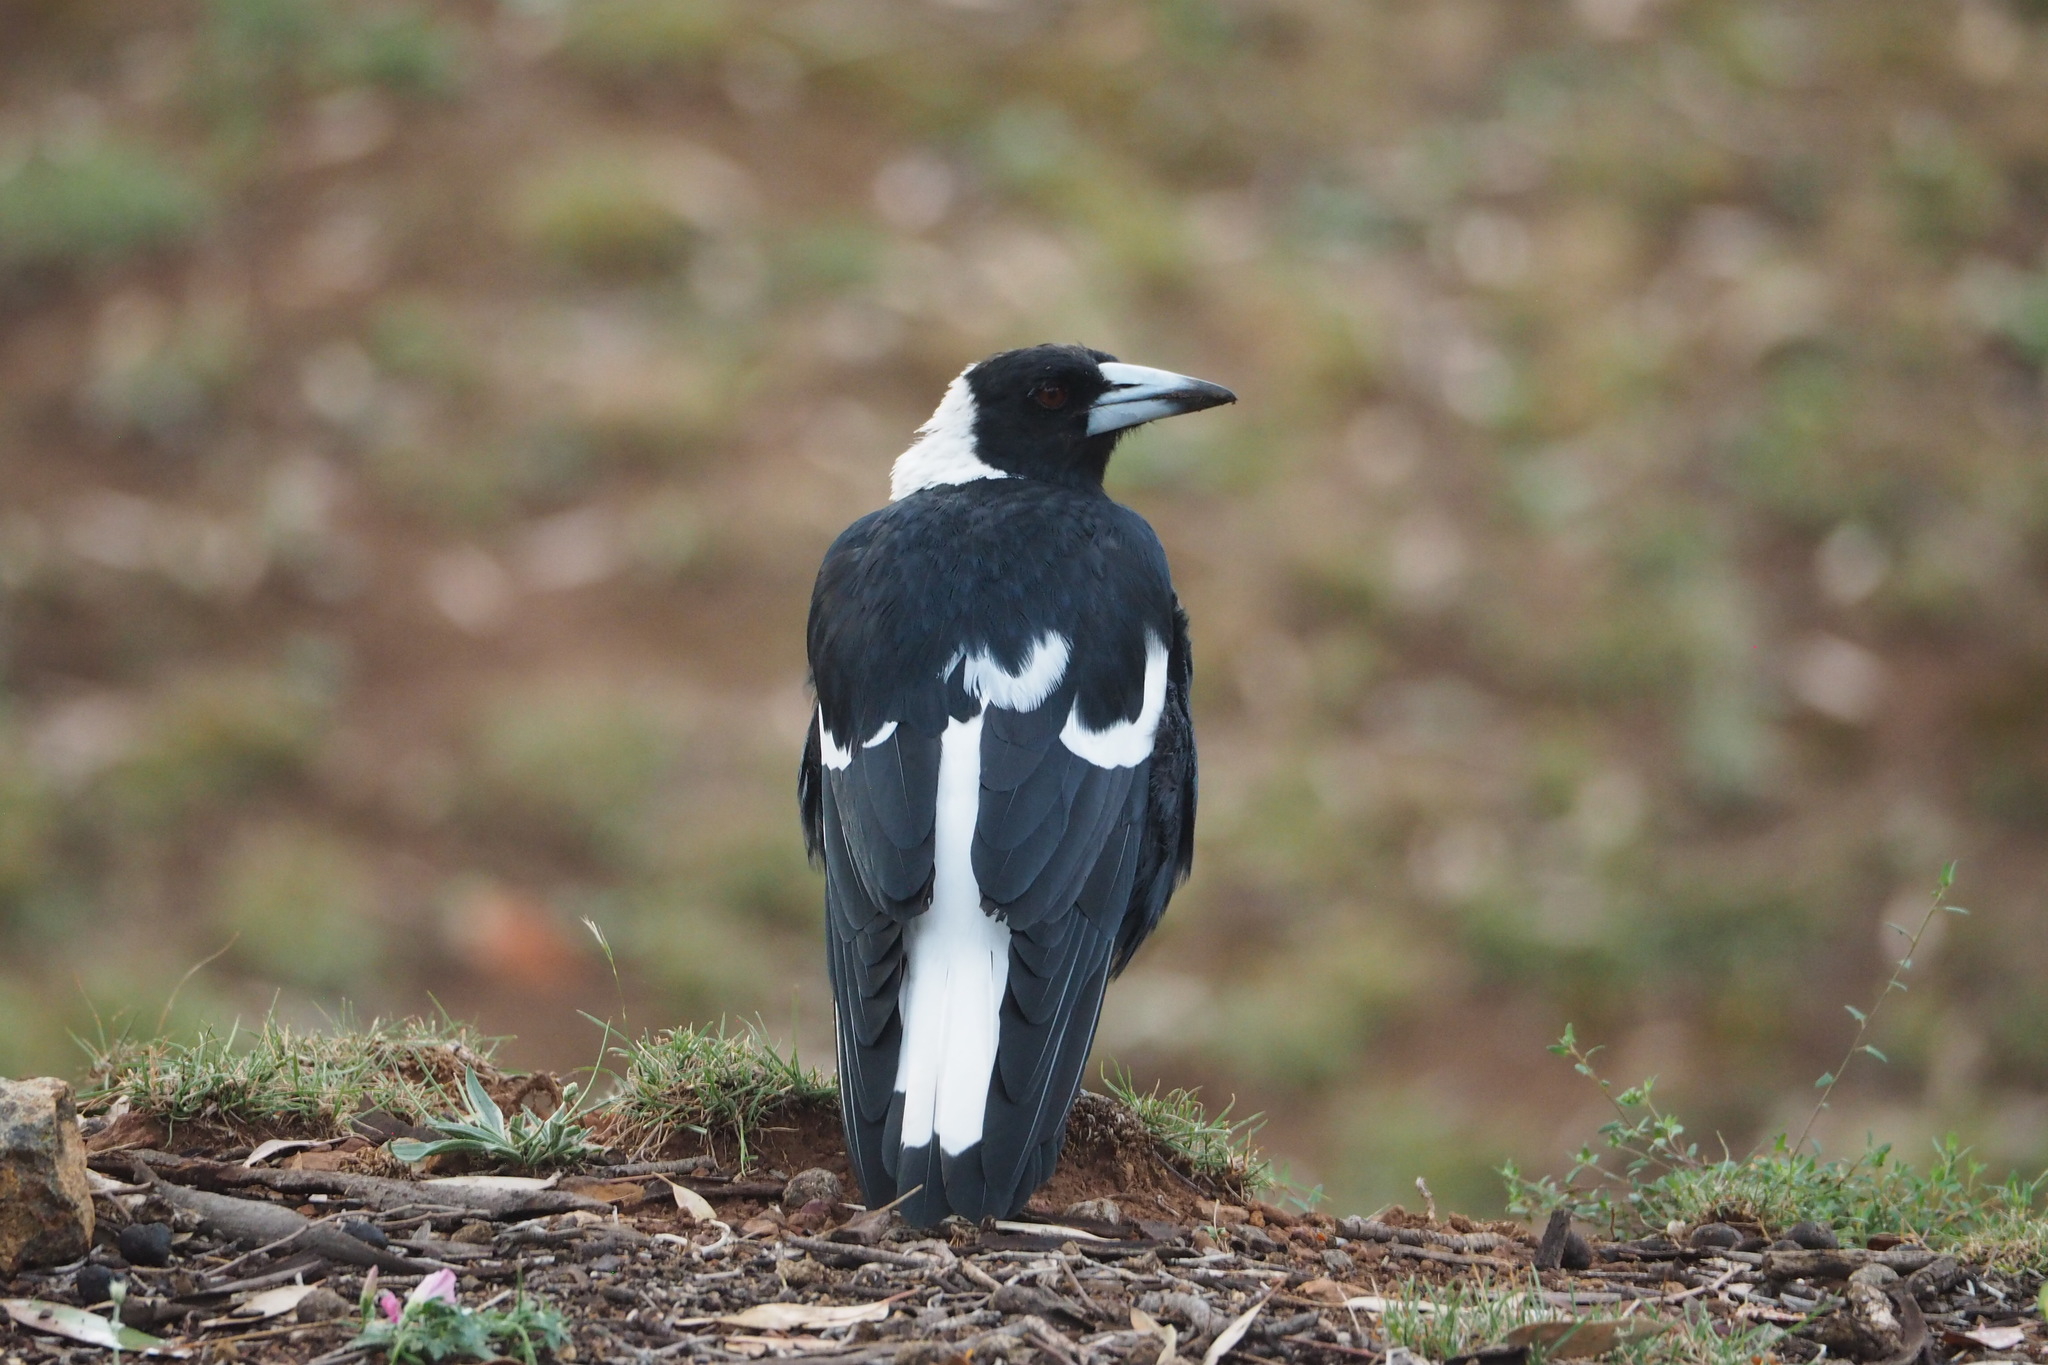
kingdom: Animalia
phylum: Chordata
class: Aves
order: Passeriformes
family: Cracticidae
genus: Gymnorhina
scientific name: Gymnorhina tibicen
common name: Australian magpie
